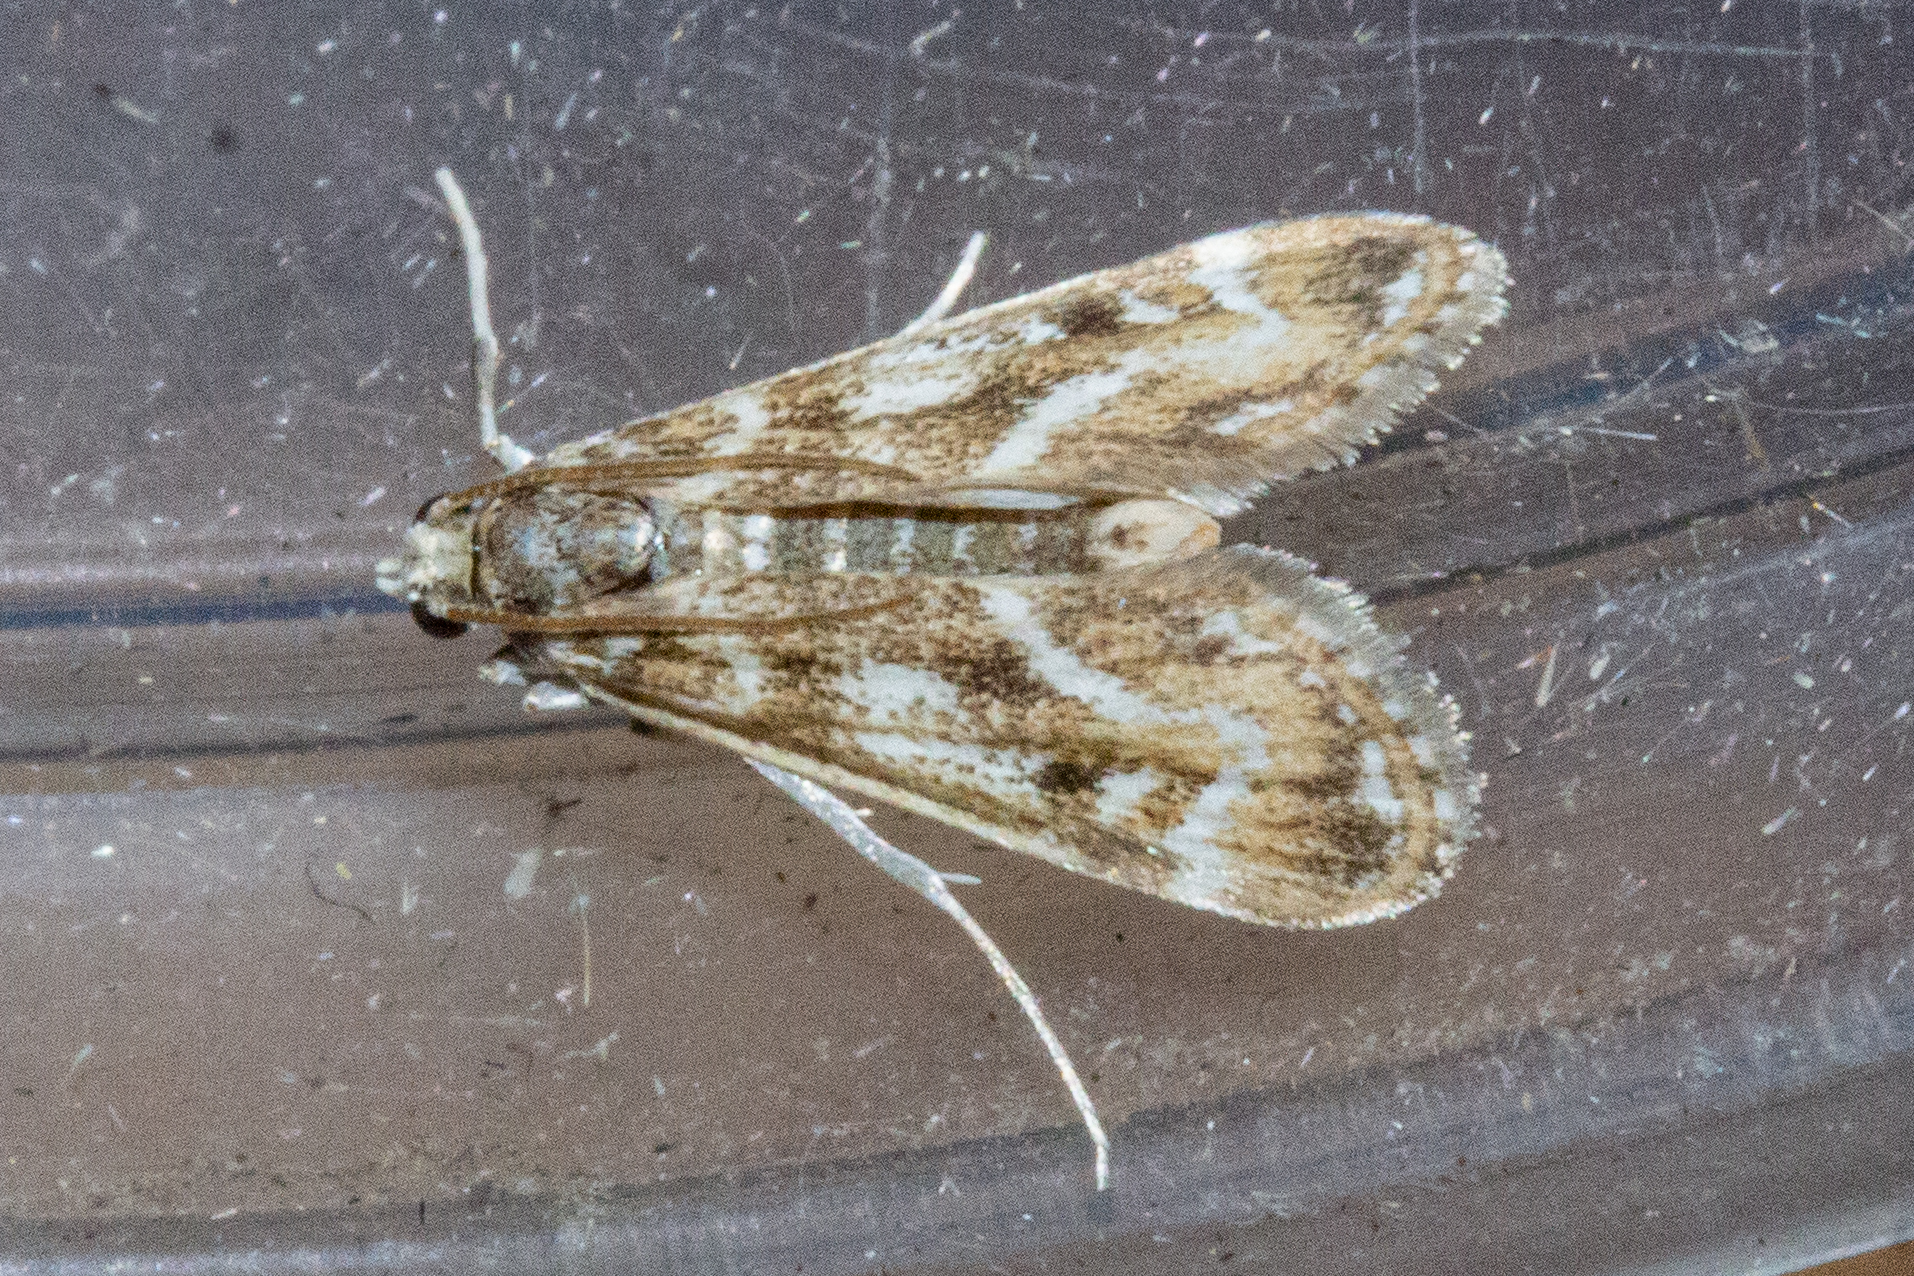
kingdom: Animalia
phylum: Arthropoda
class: Insecta
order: Lepidoptera
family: Crambidae
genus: Hygraula
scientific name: Hygraula nitens
